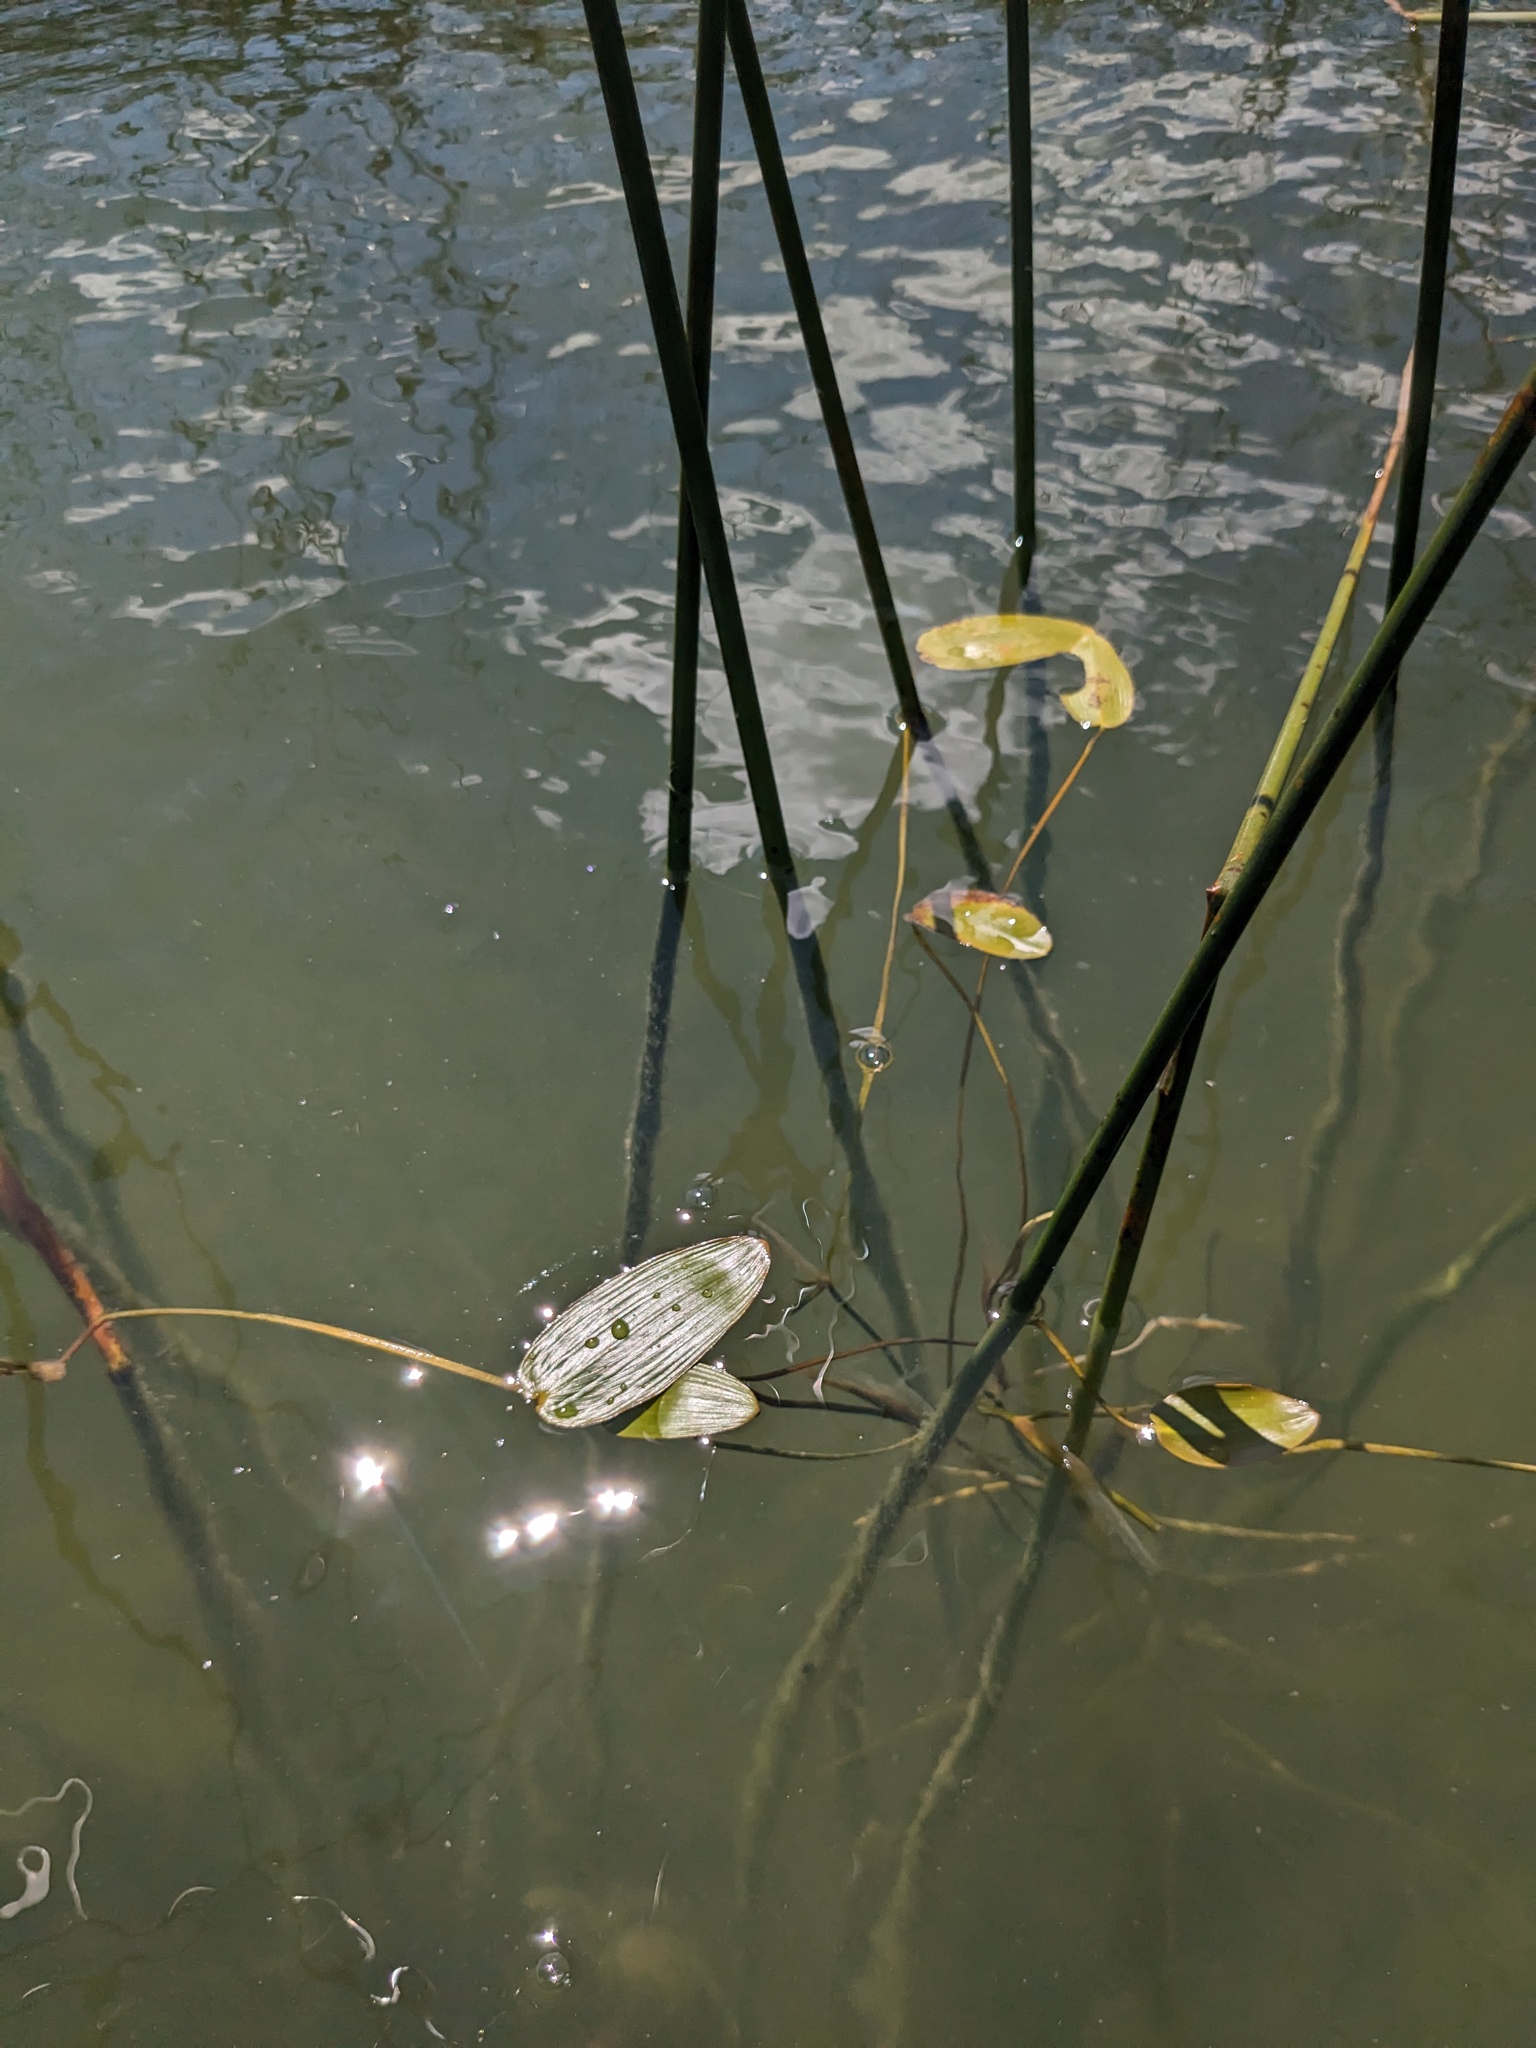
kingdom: Plantae
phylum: Tracheophyta
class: Liliopsida
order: Alismatales
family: Potamogetonaceae
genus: Potamogeton
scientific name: Potamogeton natans
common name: Broad-leaved pondweed
